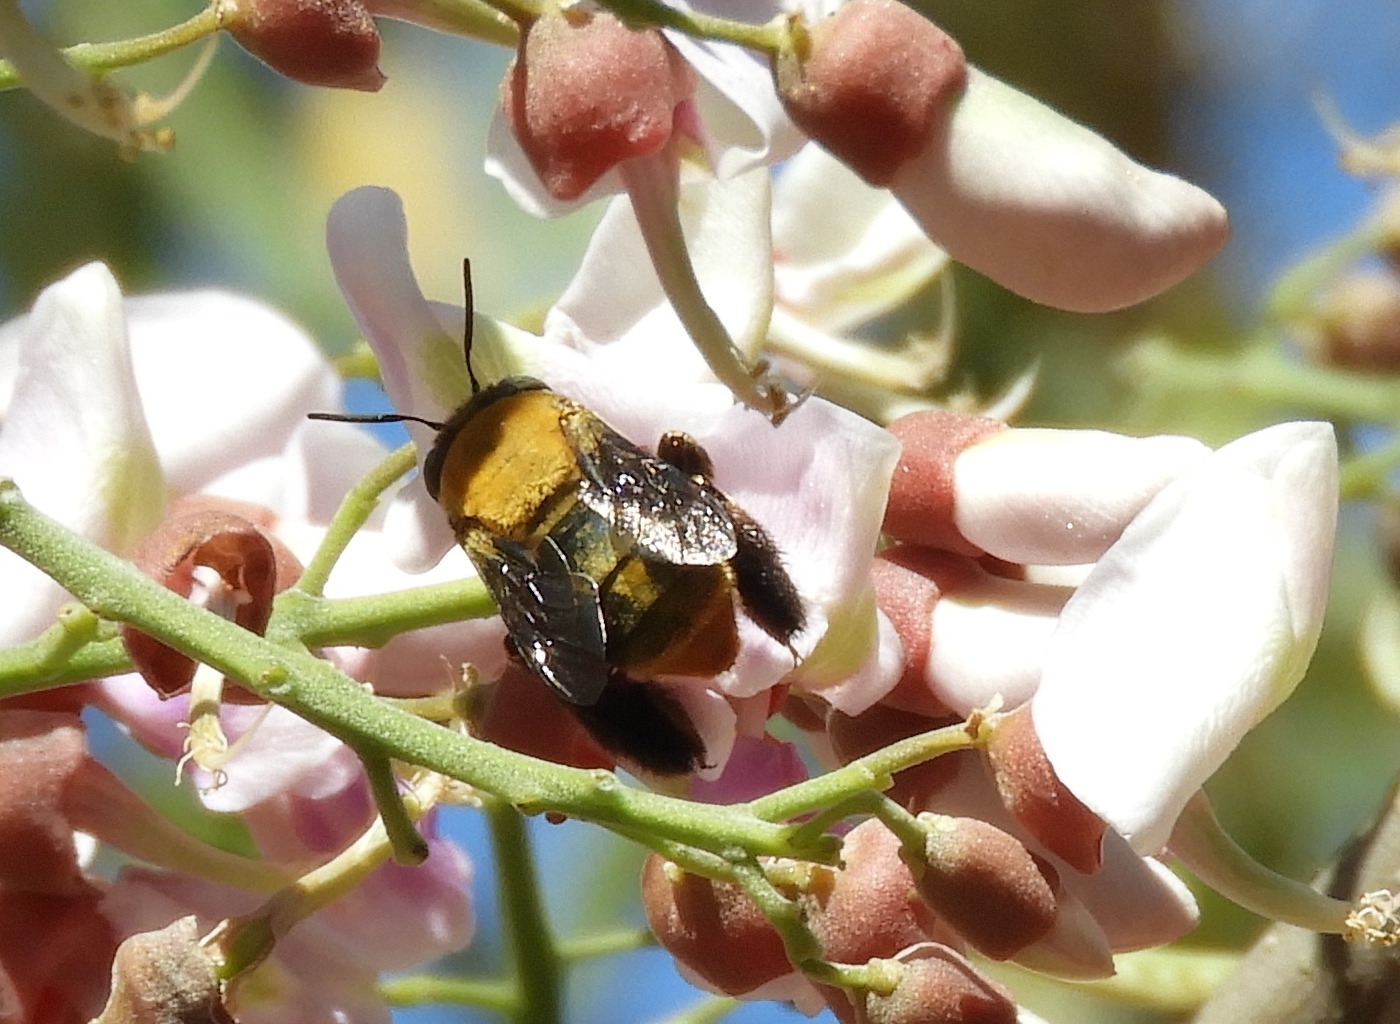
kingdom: Animalia
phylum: Arthropoda
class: Insecta
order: Hymenoptera
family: Apidae
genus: Centris
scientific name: Centris
